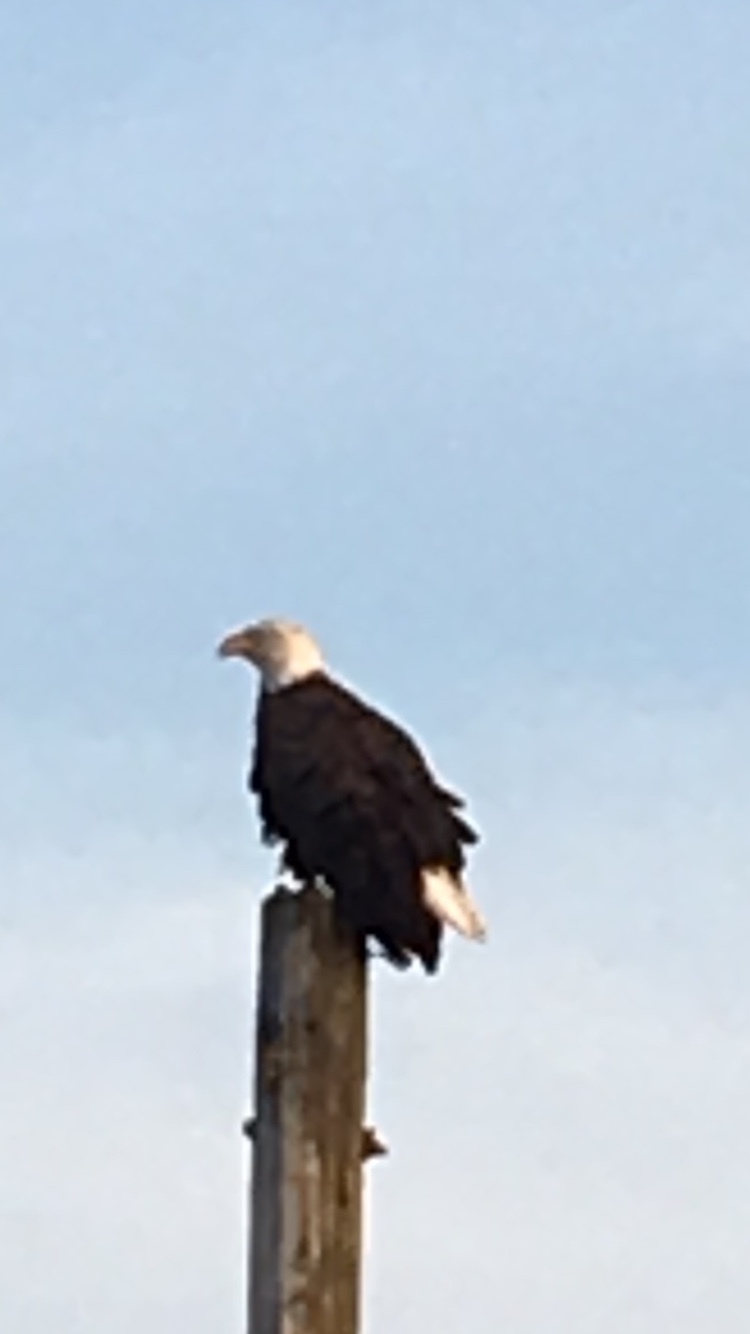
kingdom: Animalia
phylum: Chordata
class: Aves
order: Accipitriformes
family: Accipitridae
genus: Haliaeetus
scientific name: Haliaeetus leucocephalus
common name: Bald eagle
